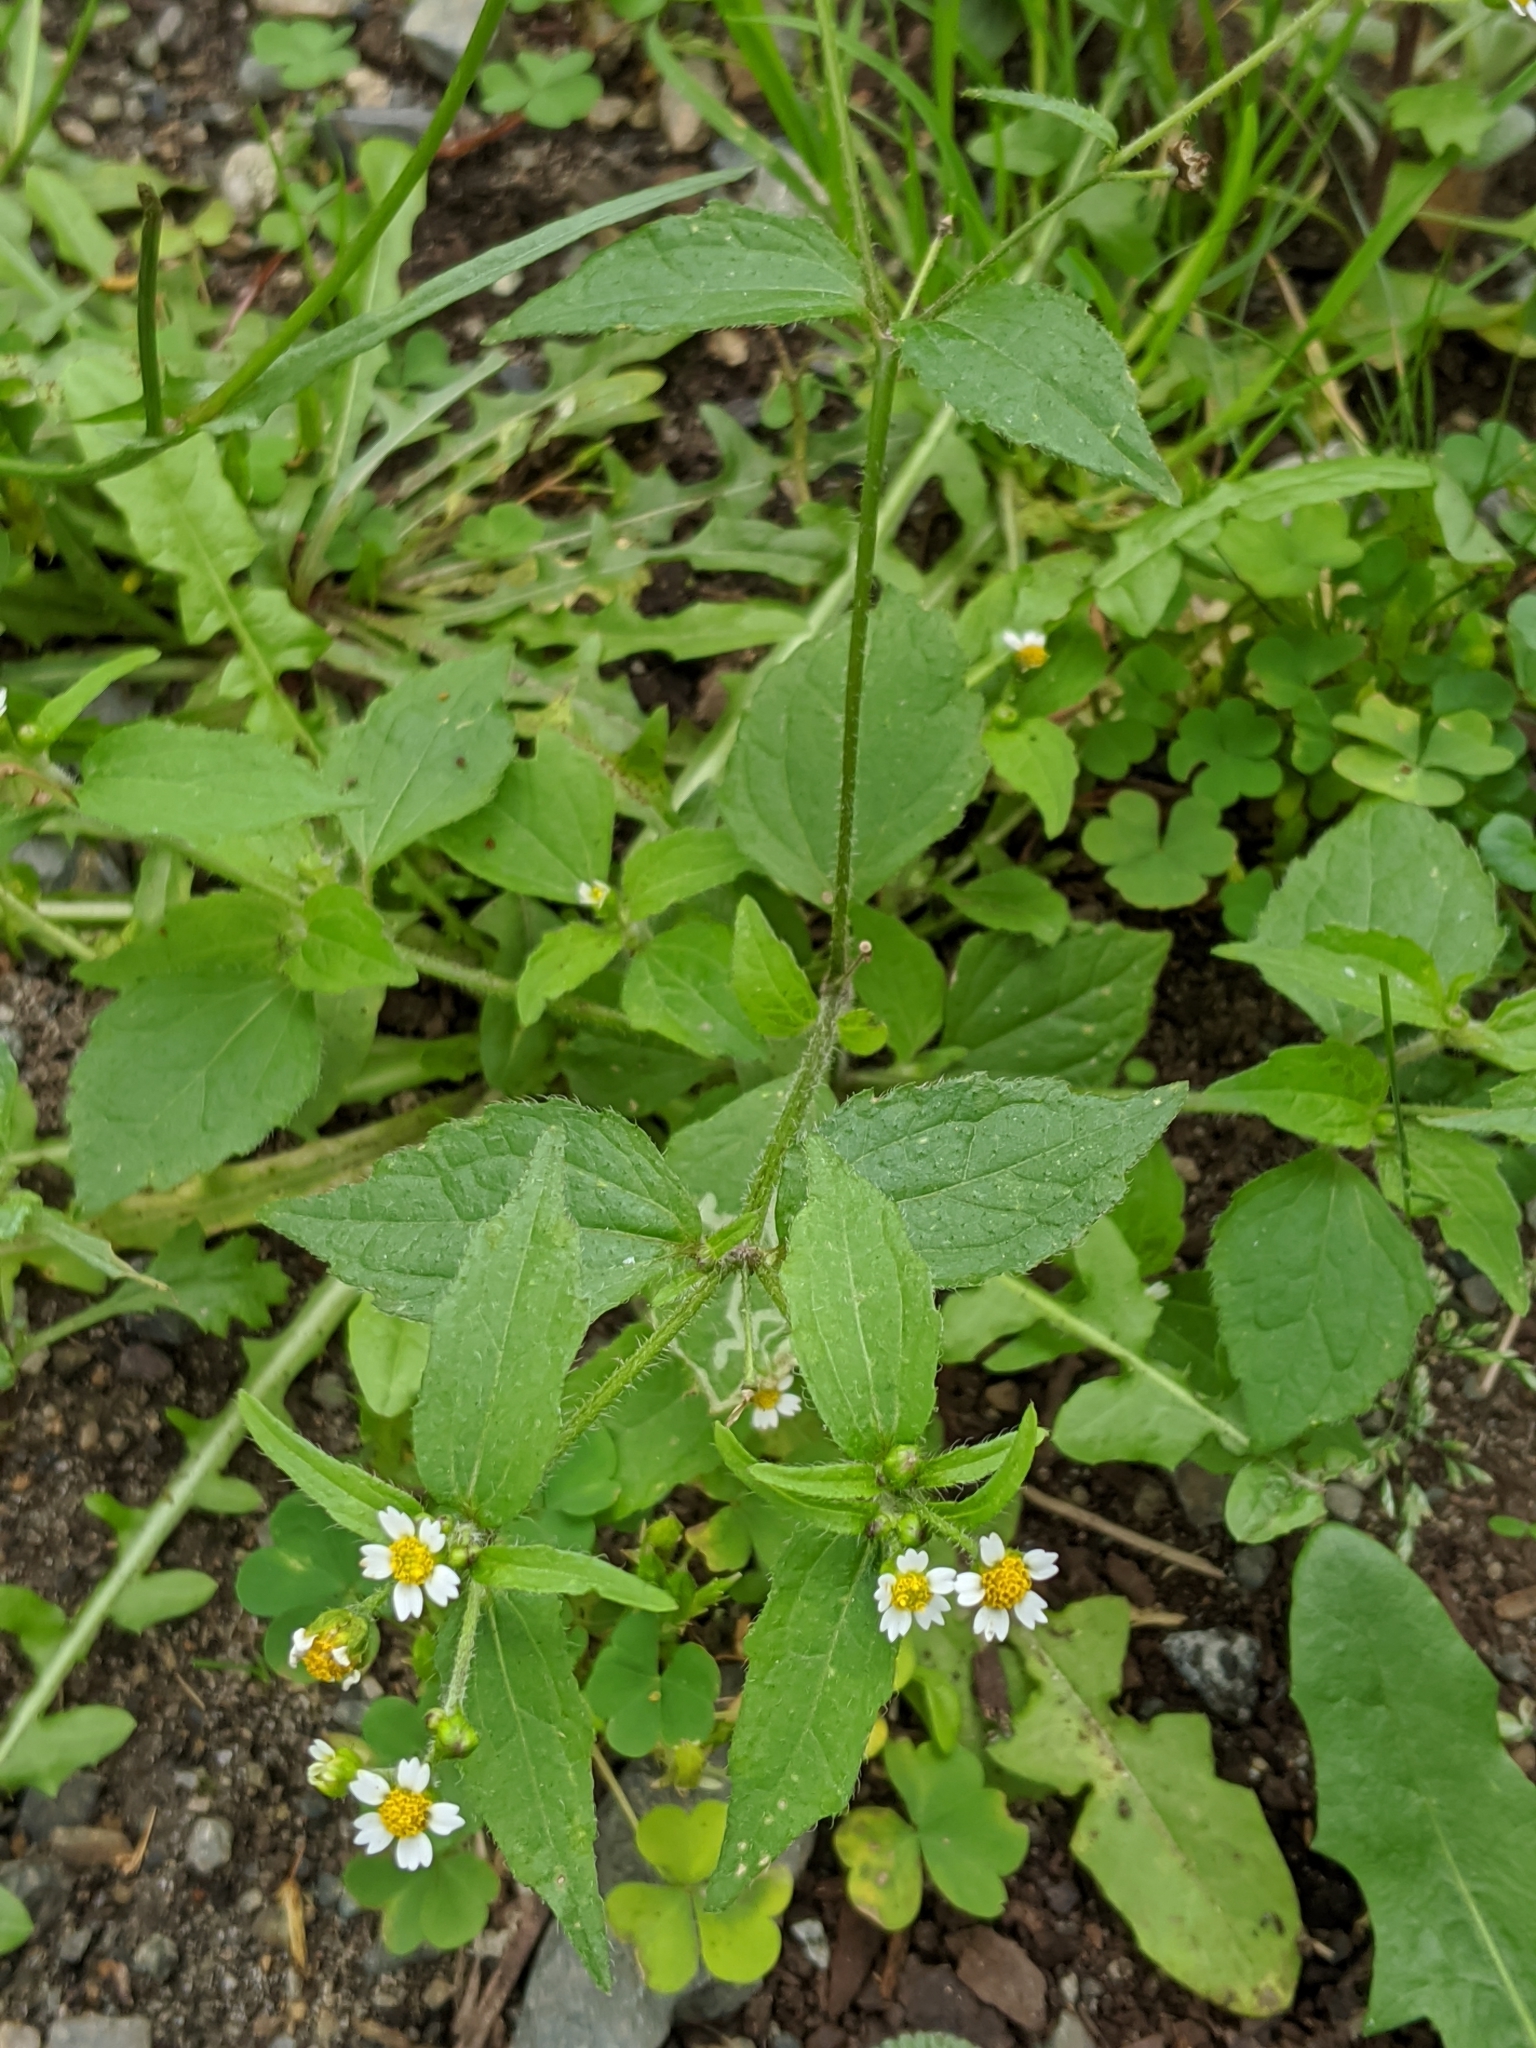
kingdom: Plantae
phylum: Tracheophyta
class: Magnoliopsida
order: Asterales
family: Asteraceae
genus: Galinsoga
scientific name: Galinsoga quadriradiata
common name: Shaggy soldier
